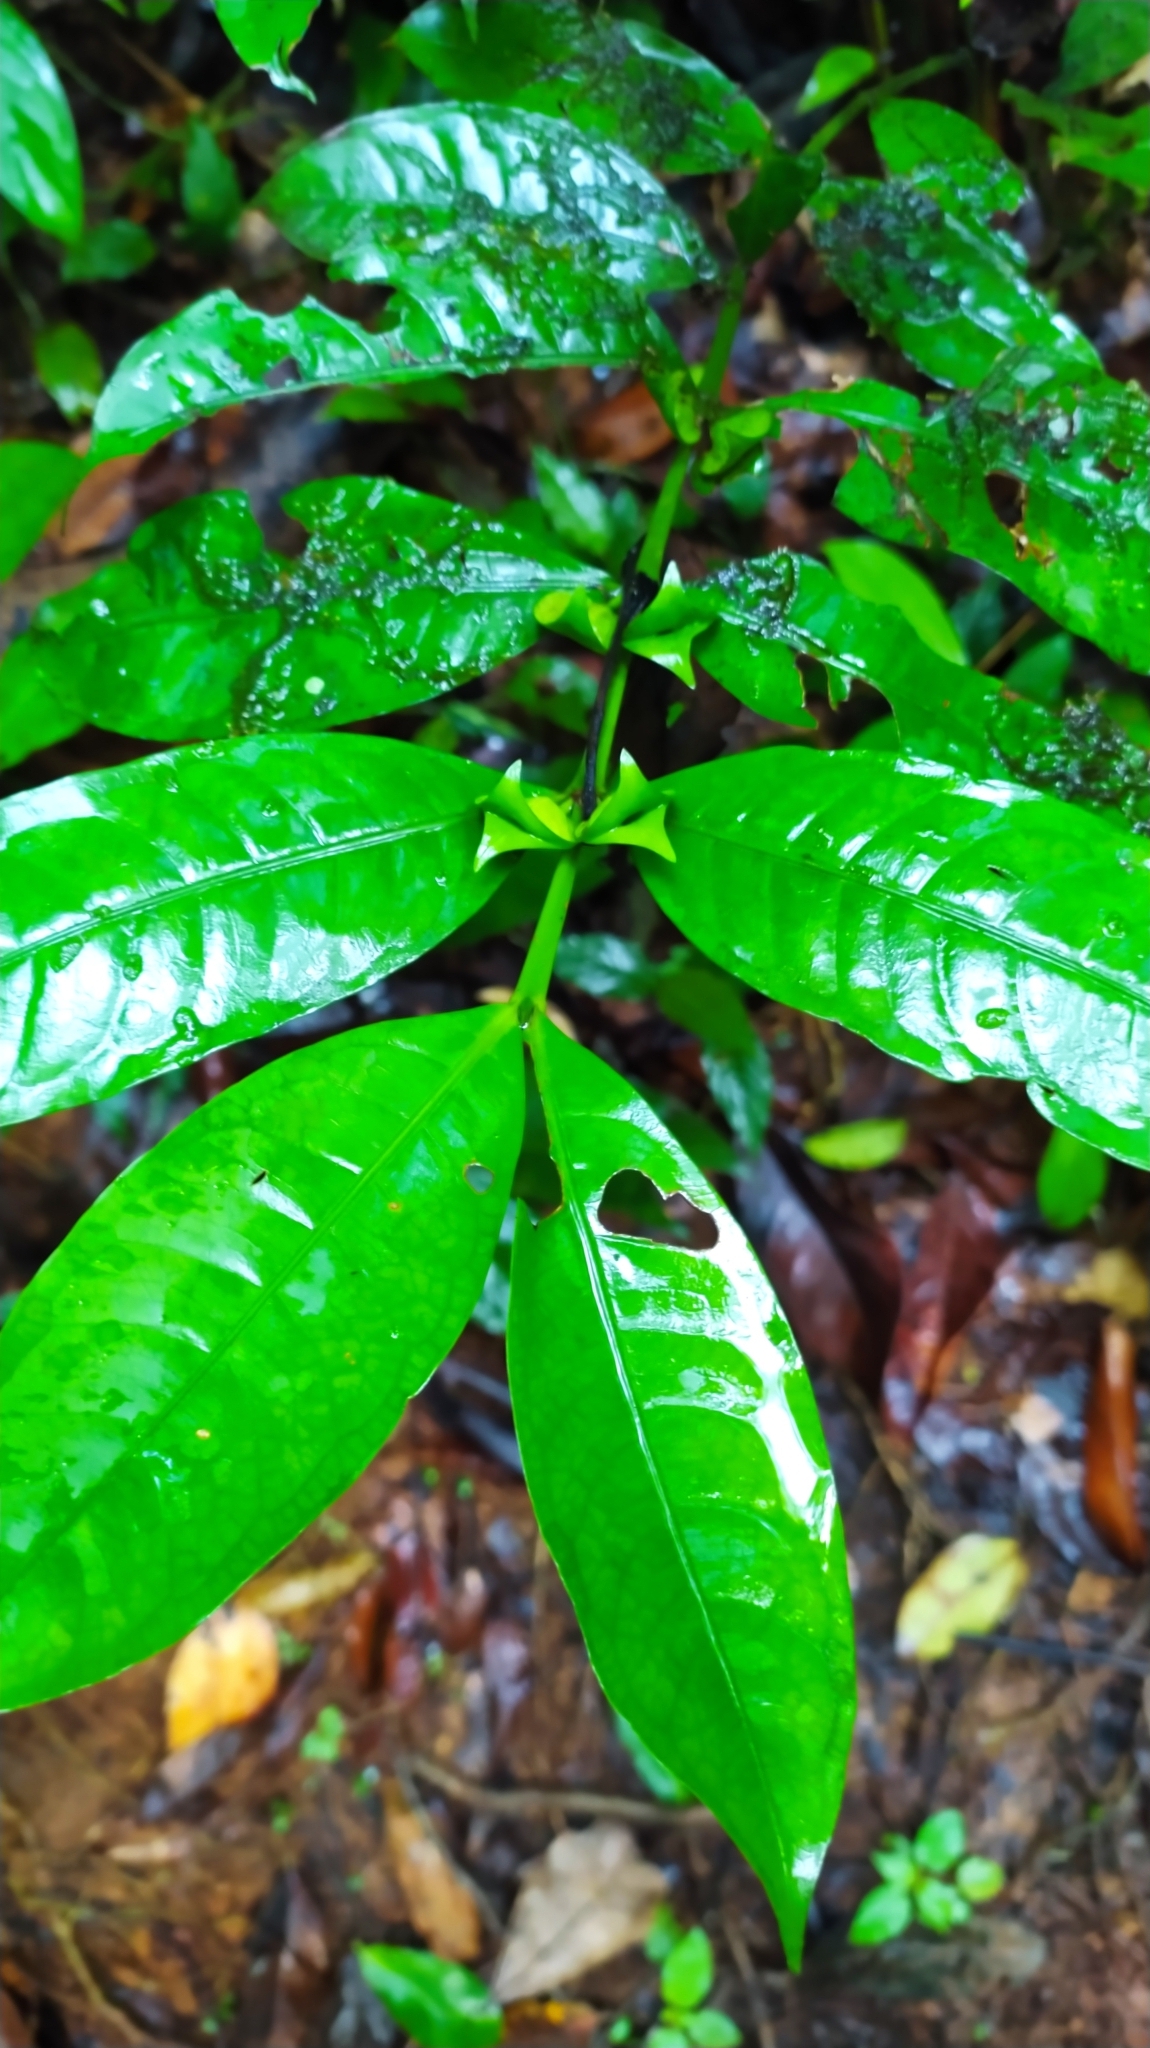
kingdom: Plantae
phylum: Tracheophyta
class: Magnoliopsida
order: Gentianales
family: Rubiaceae
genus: Faramea
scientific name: Faramea guianensis
